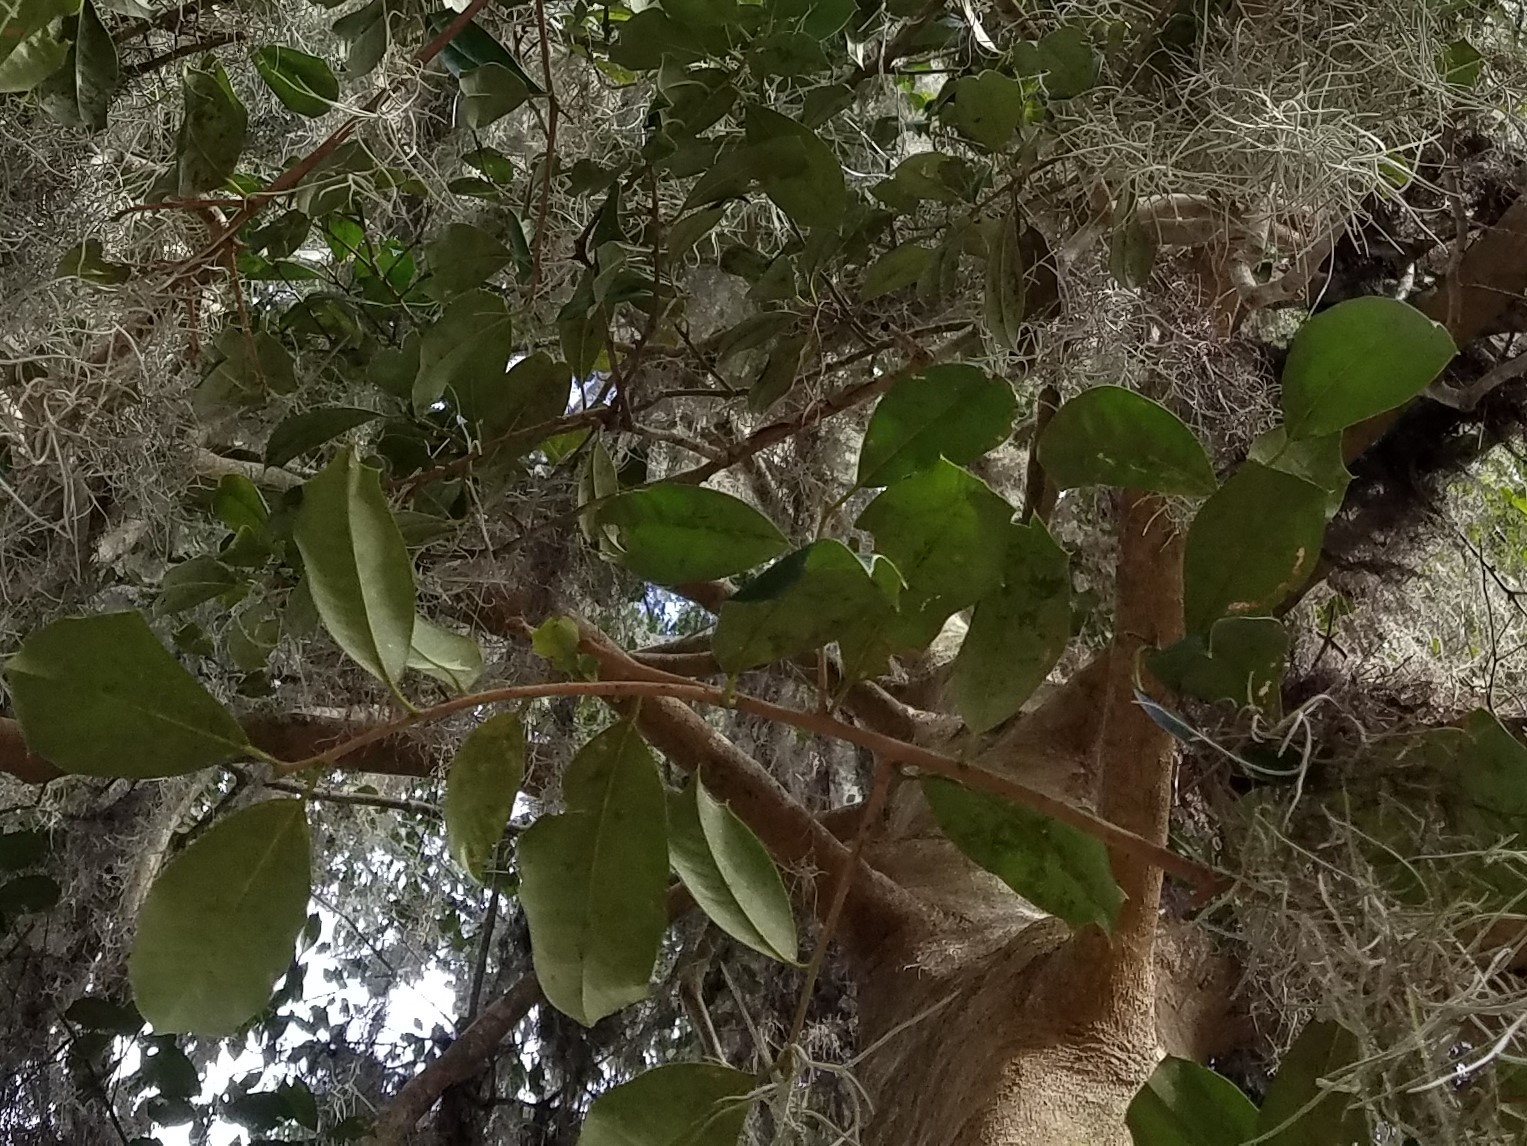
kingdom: Plantae
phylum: Tracheophyta
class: Magnoliopsida
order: Aquifoliales
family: Aquifoliaceae
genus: Ilex
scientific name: Ilex opaca
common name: American holly
